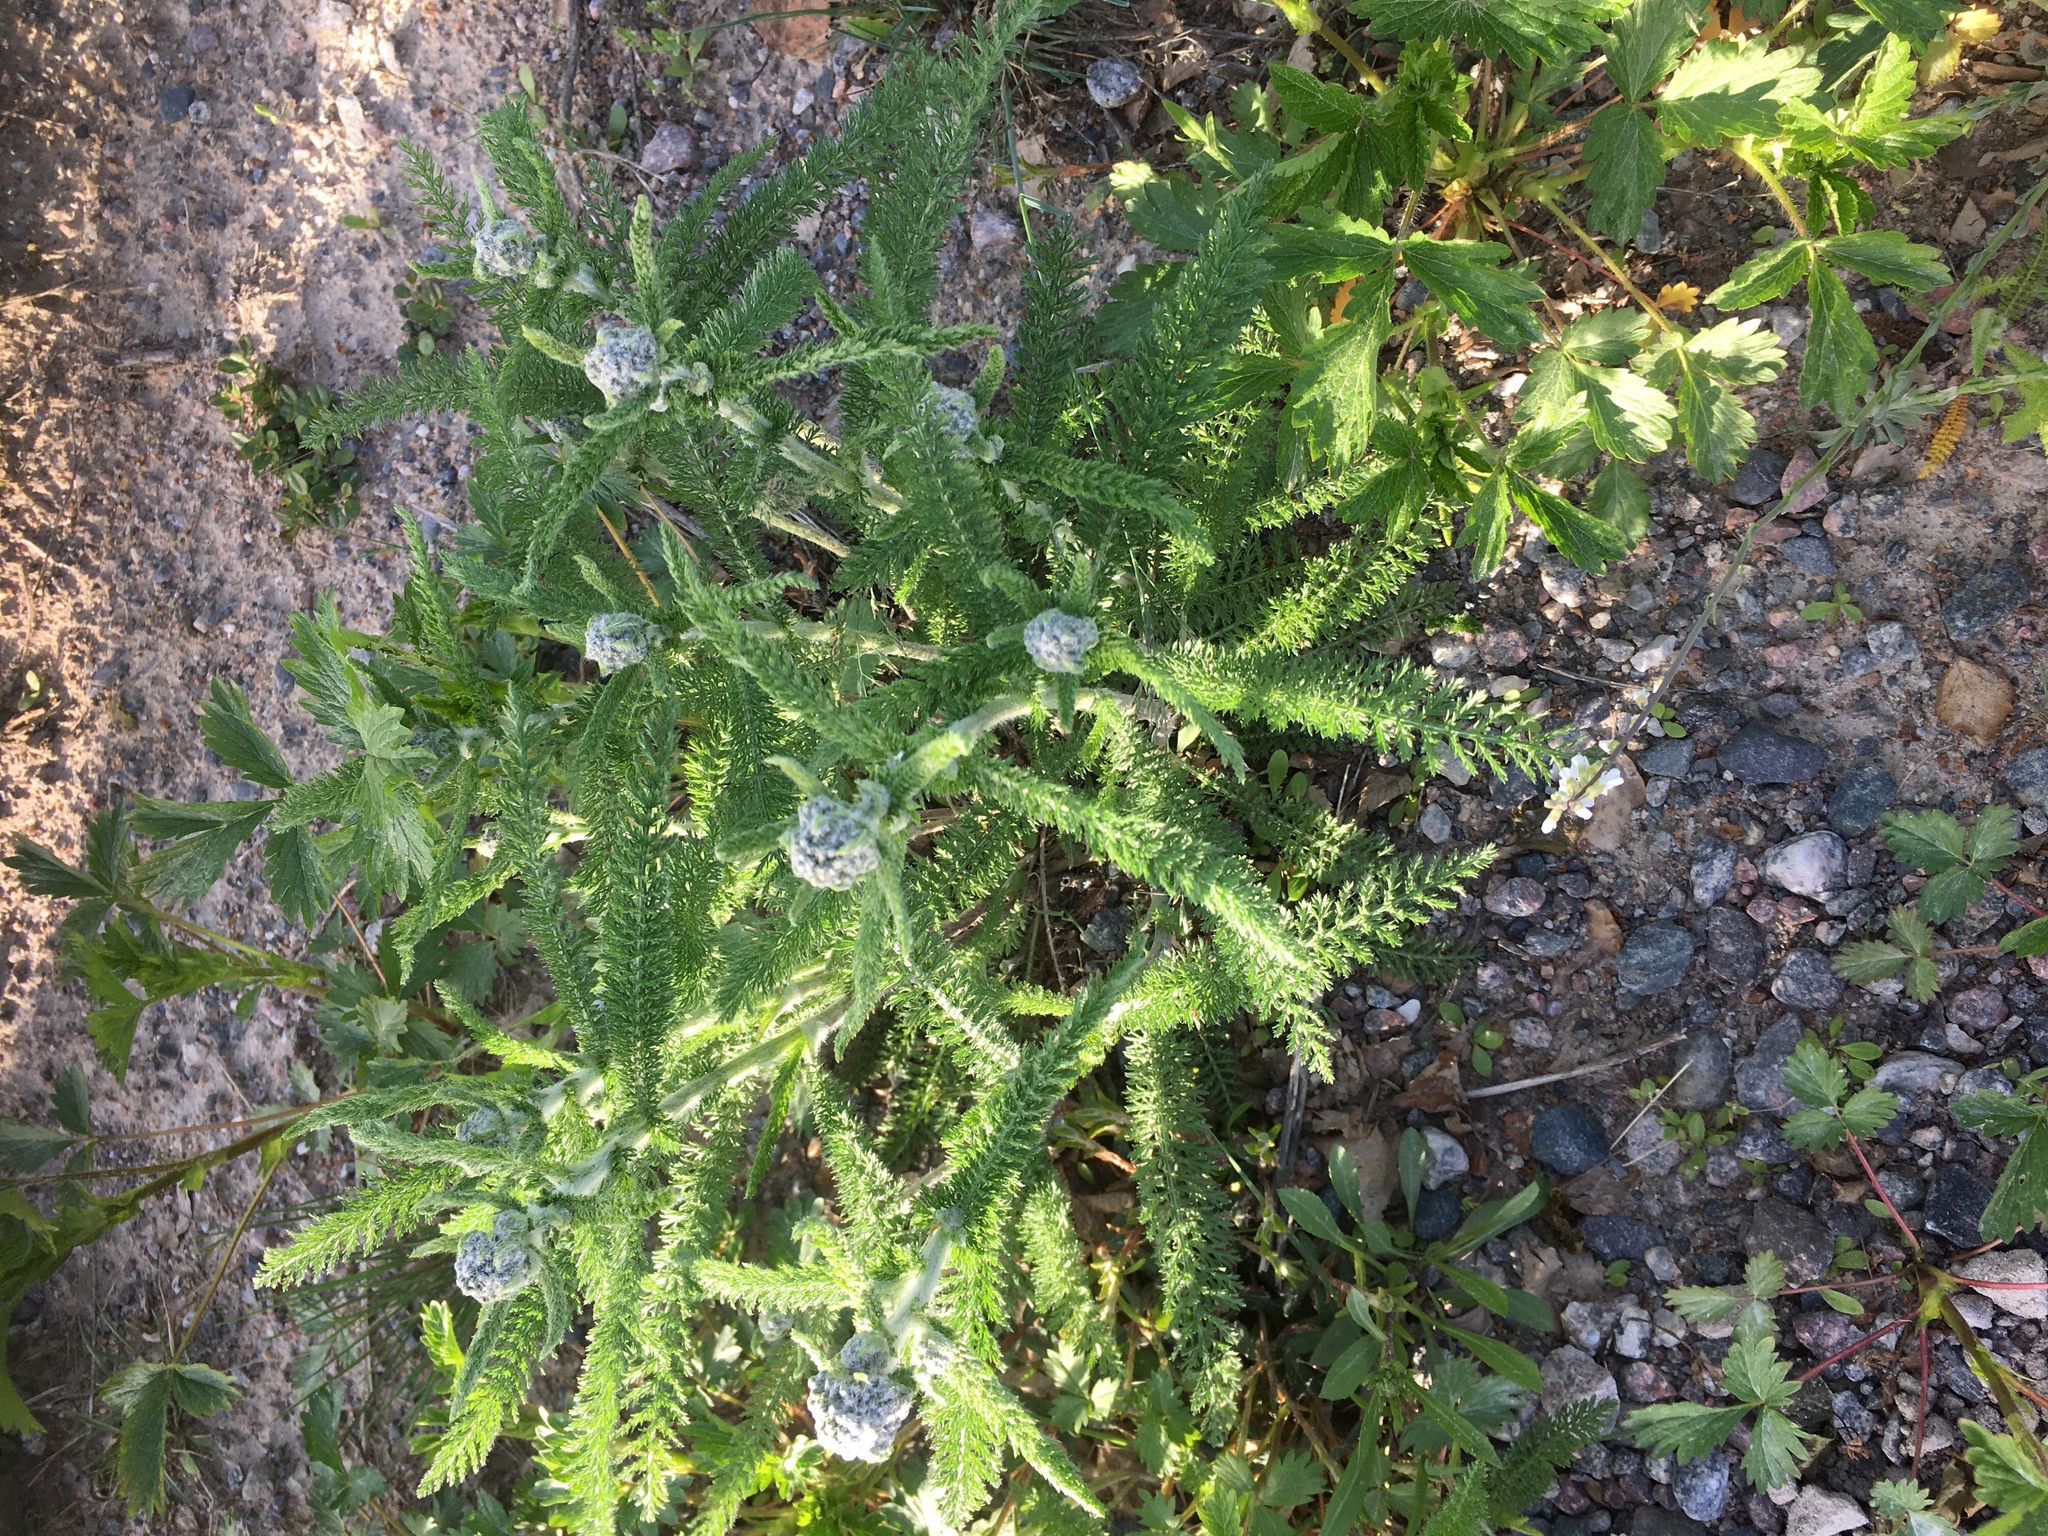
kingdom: Plantae
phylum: Tracheophyta
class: Magnoliopsida
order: Asterales
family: Asteraceae
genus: Achillea
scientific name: Achillea millefolium
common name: Yarrow
